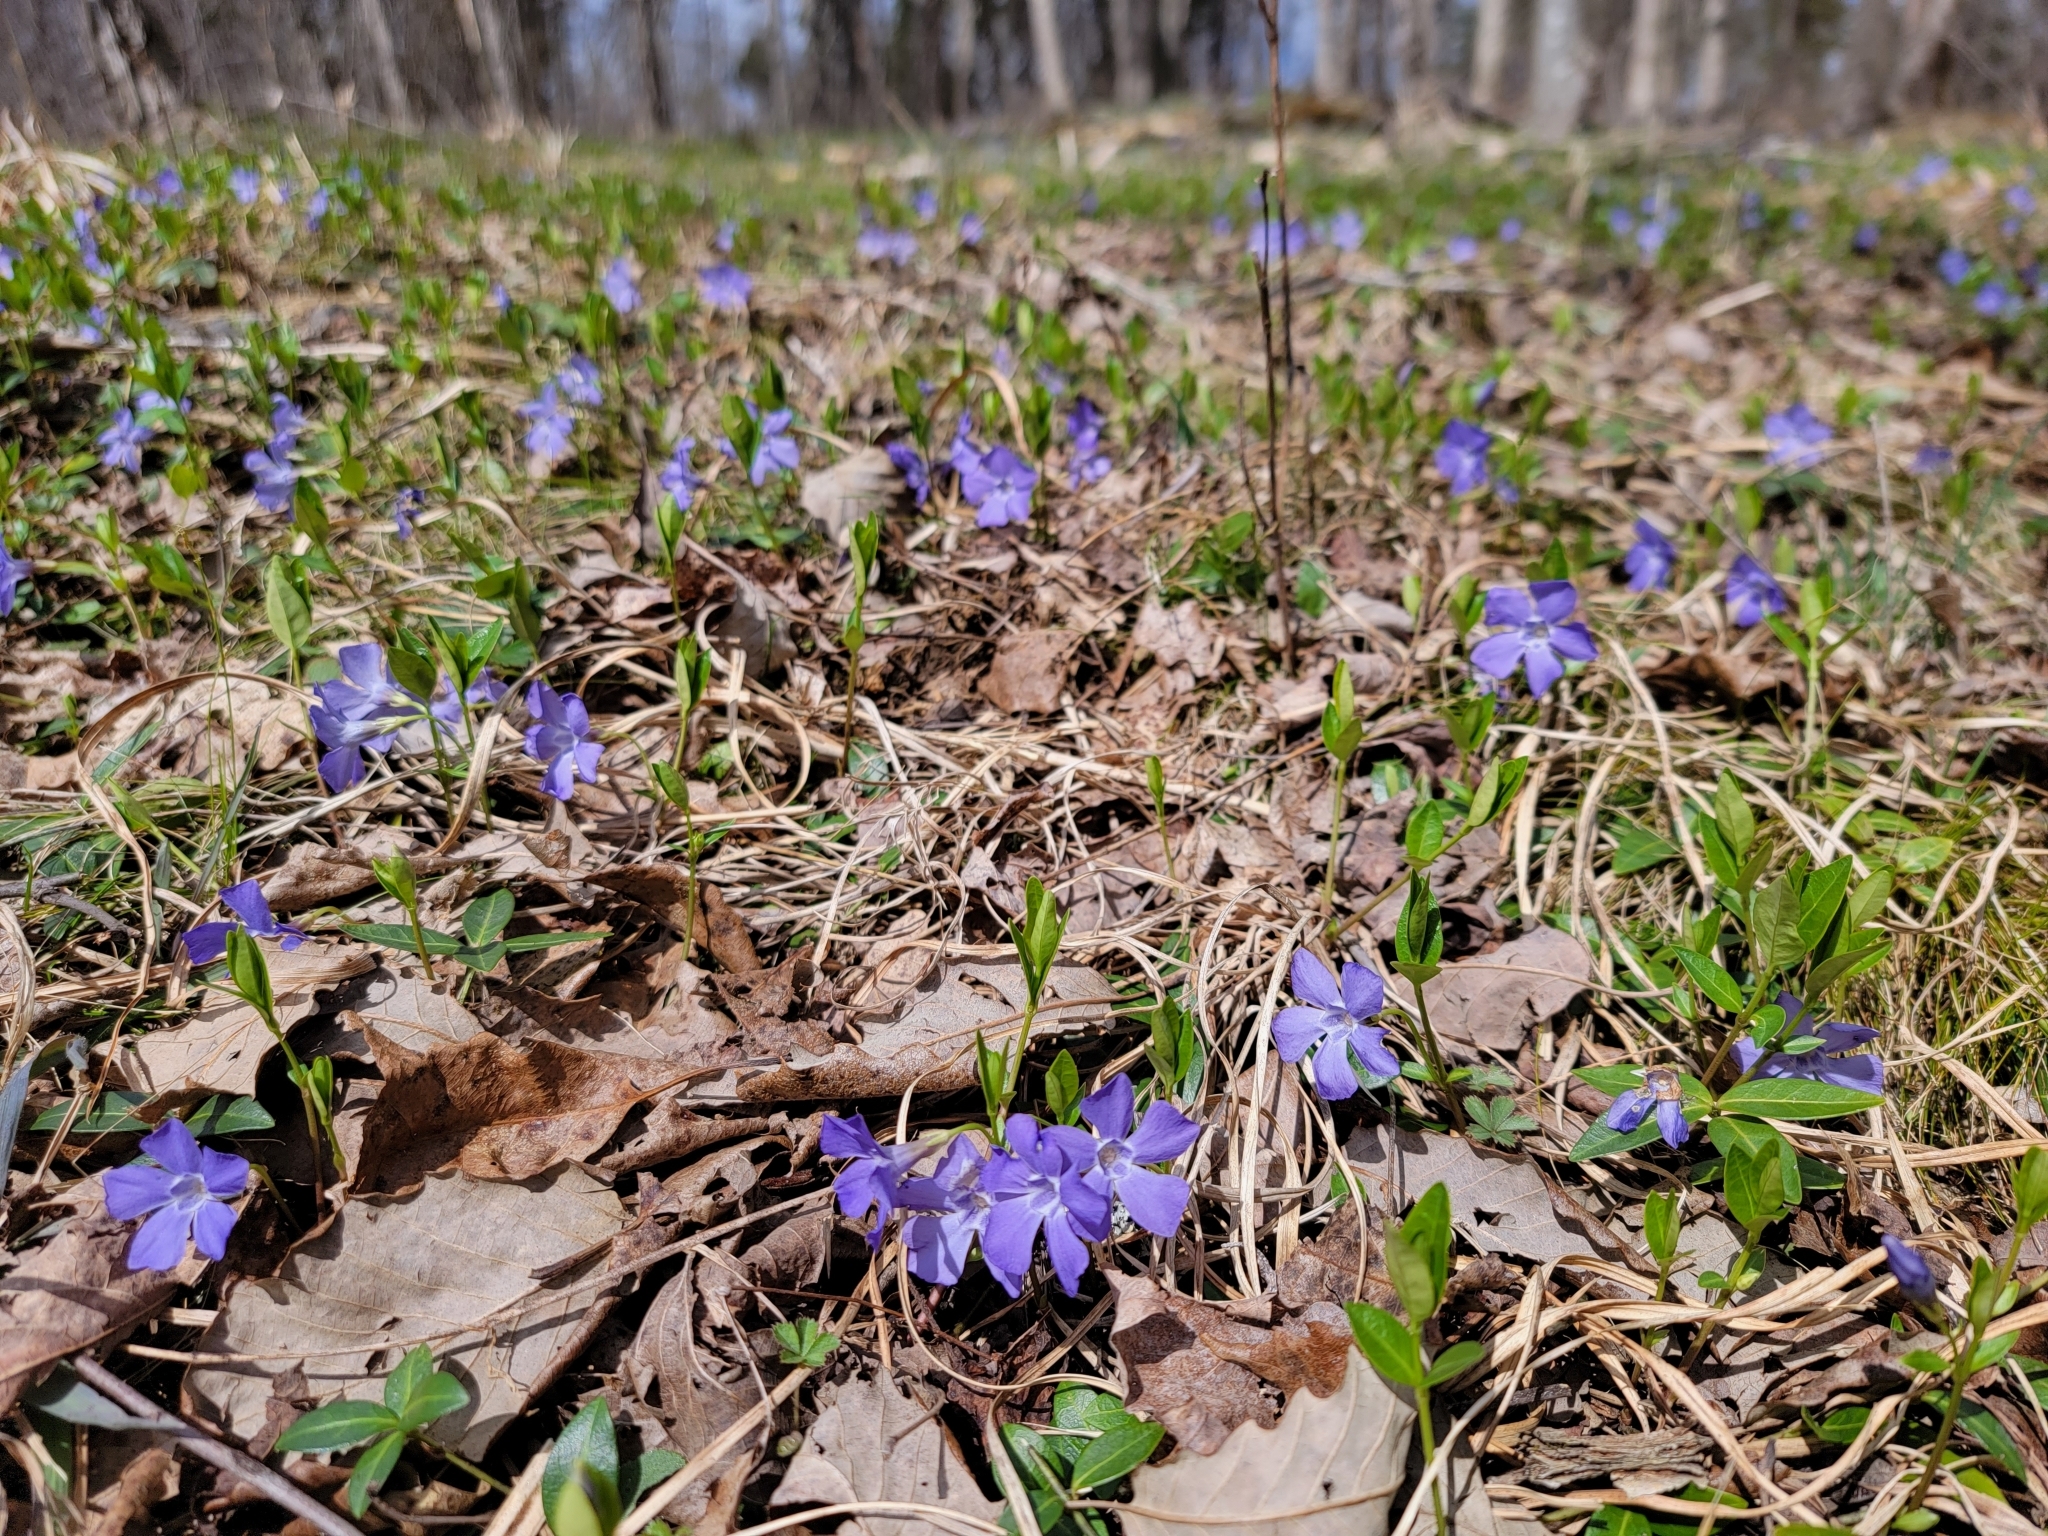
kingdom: Plantae
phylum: Tracheophyta
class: Magnoliopsida
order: Gentianales
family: Apocynaceae
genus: Vinca
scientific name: Vinca minor
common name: Lesser periwinkle
